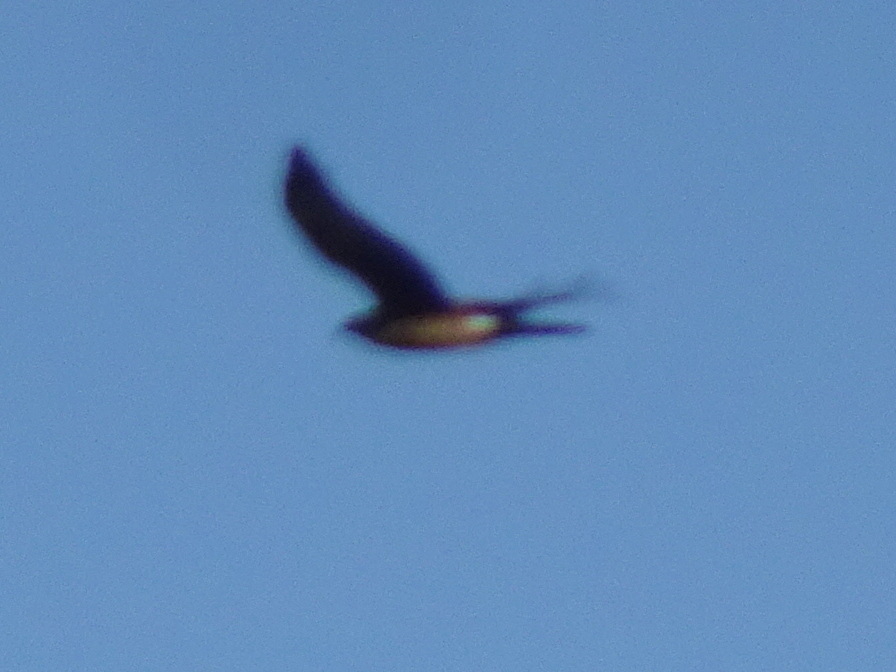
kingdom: Animalia
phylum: Chordata
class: Aves
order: Accipitriformes
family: Accipitridae
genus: Circus
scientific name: Circus cyaneus
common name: Hen harrier
